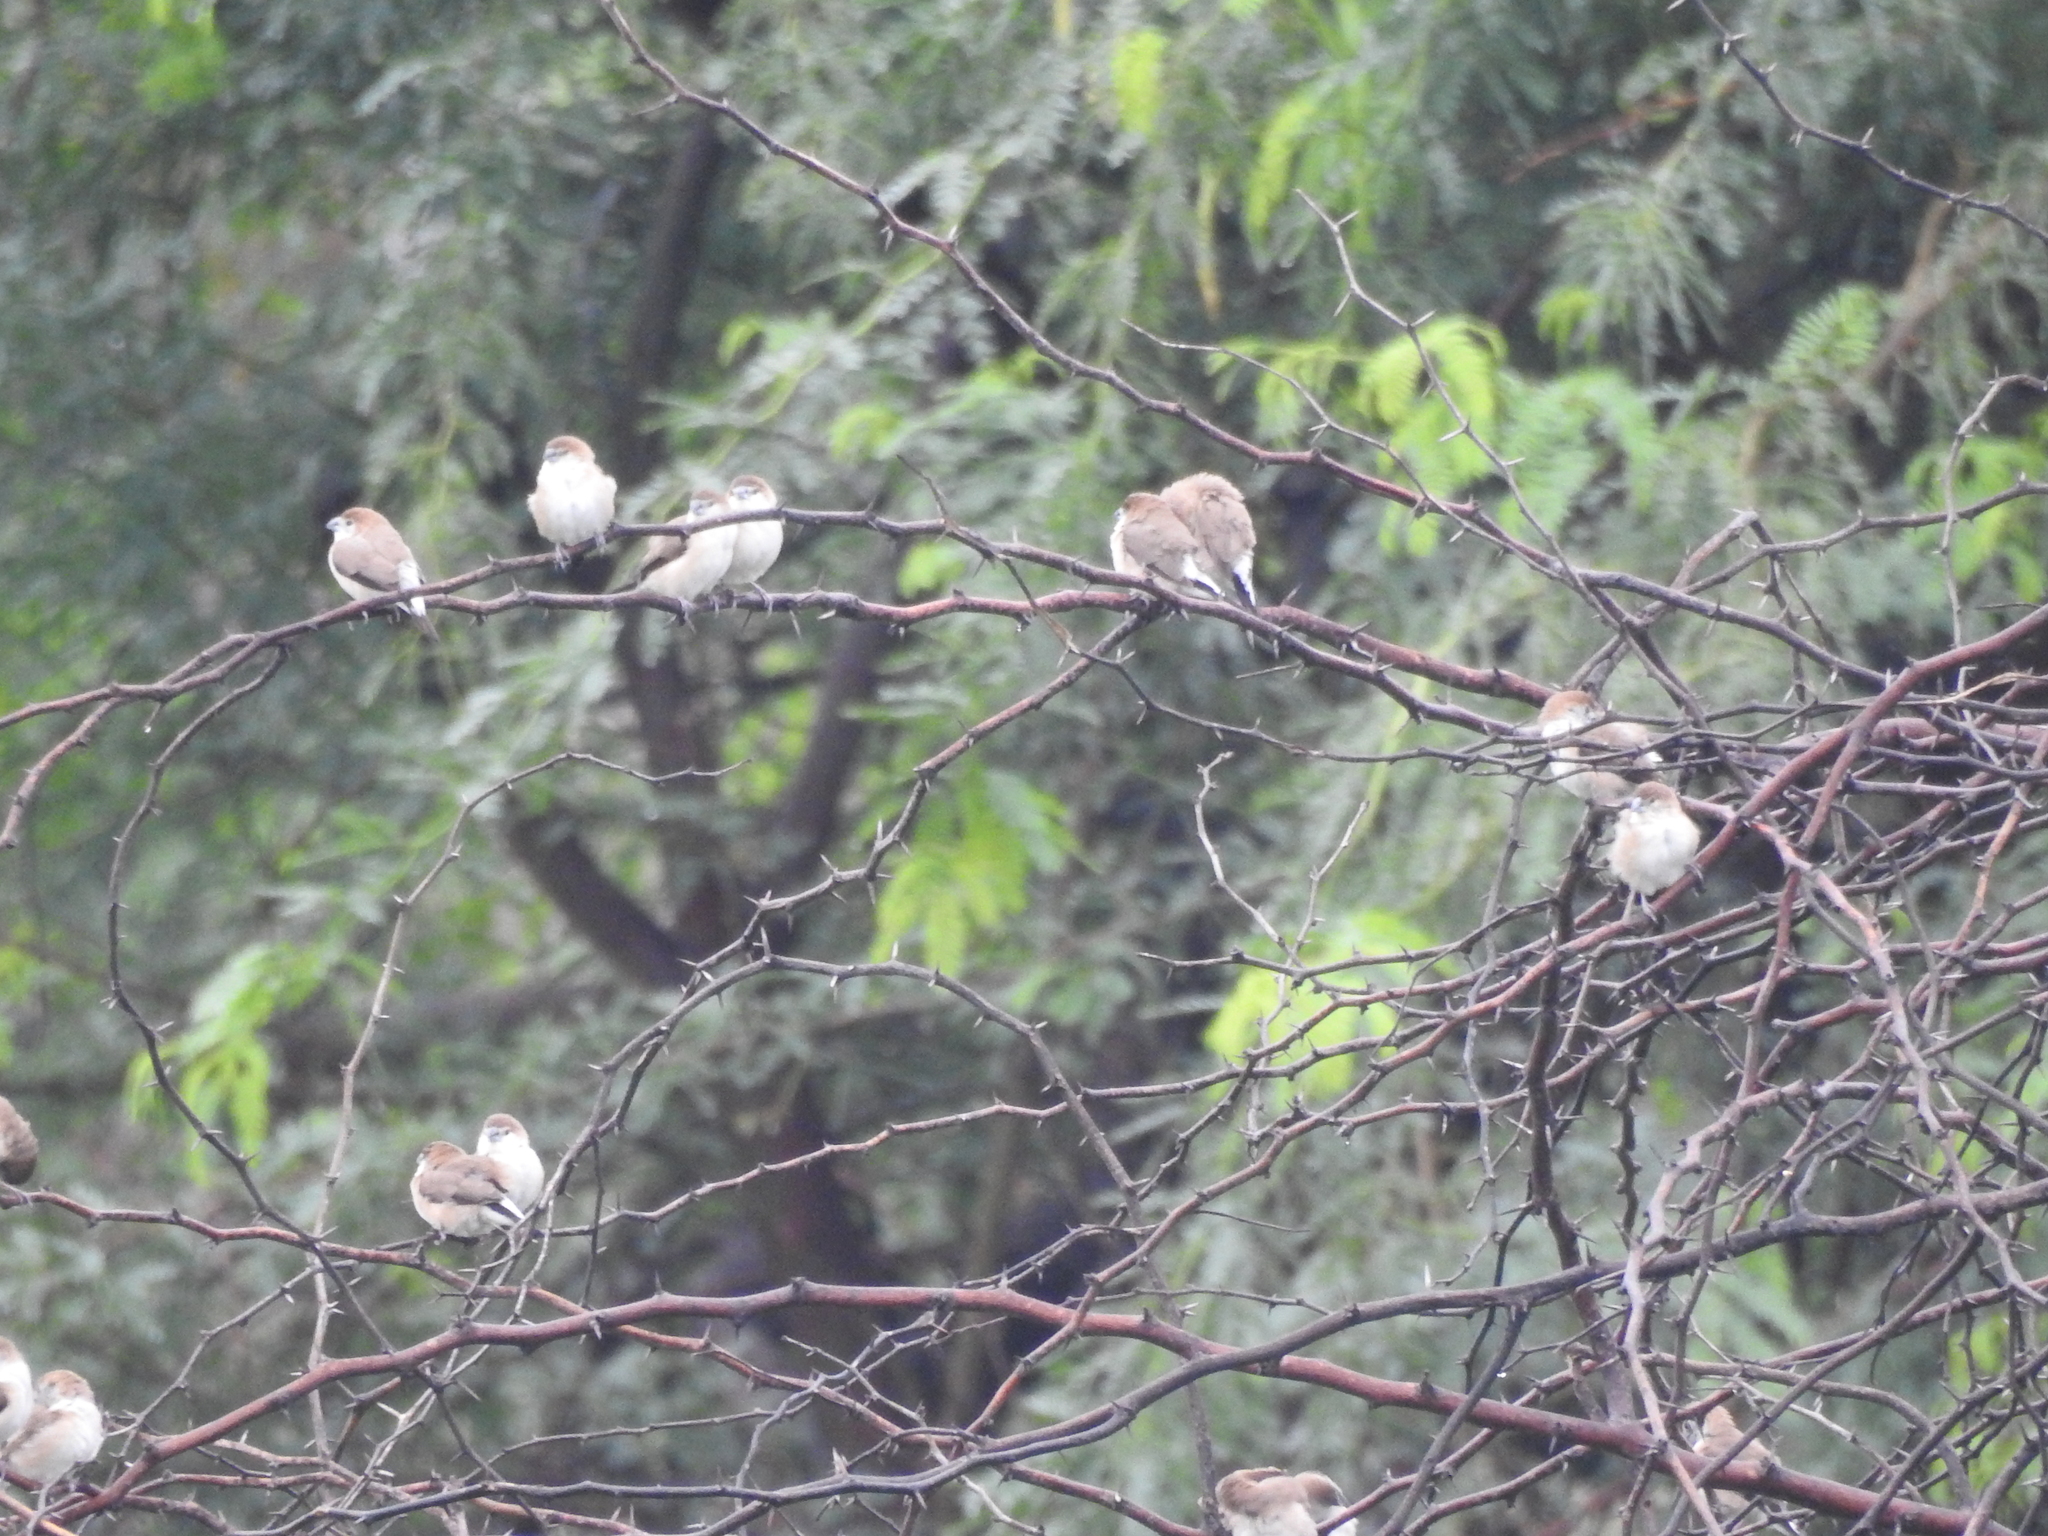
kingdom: Animalia
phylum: Chordata
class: Aves
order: Passeriformes
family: Estrildidae
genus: Euodice
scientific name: Euodice malabarica
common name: Indian silverbill
